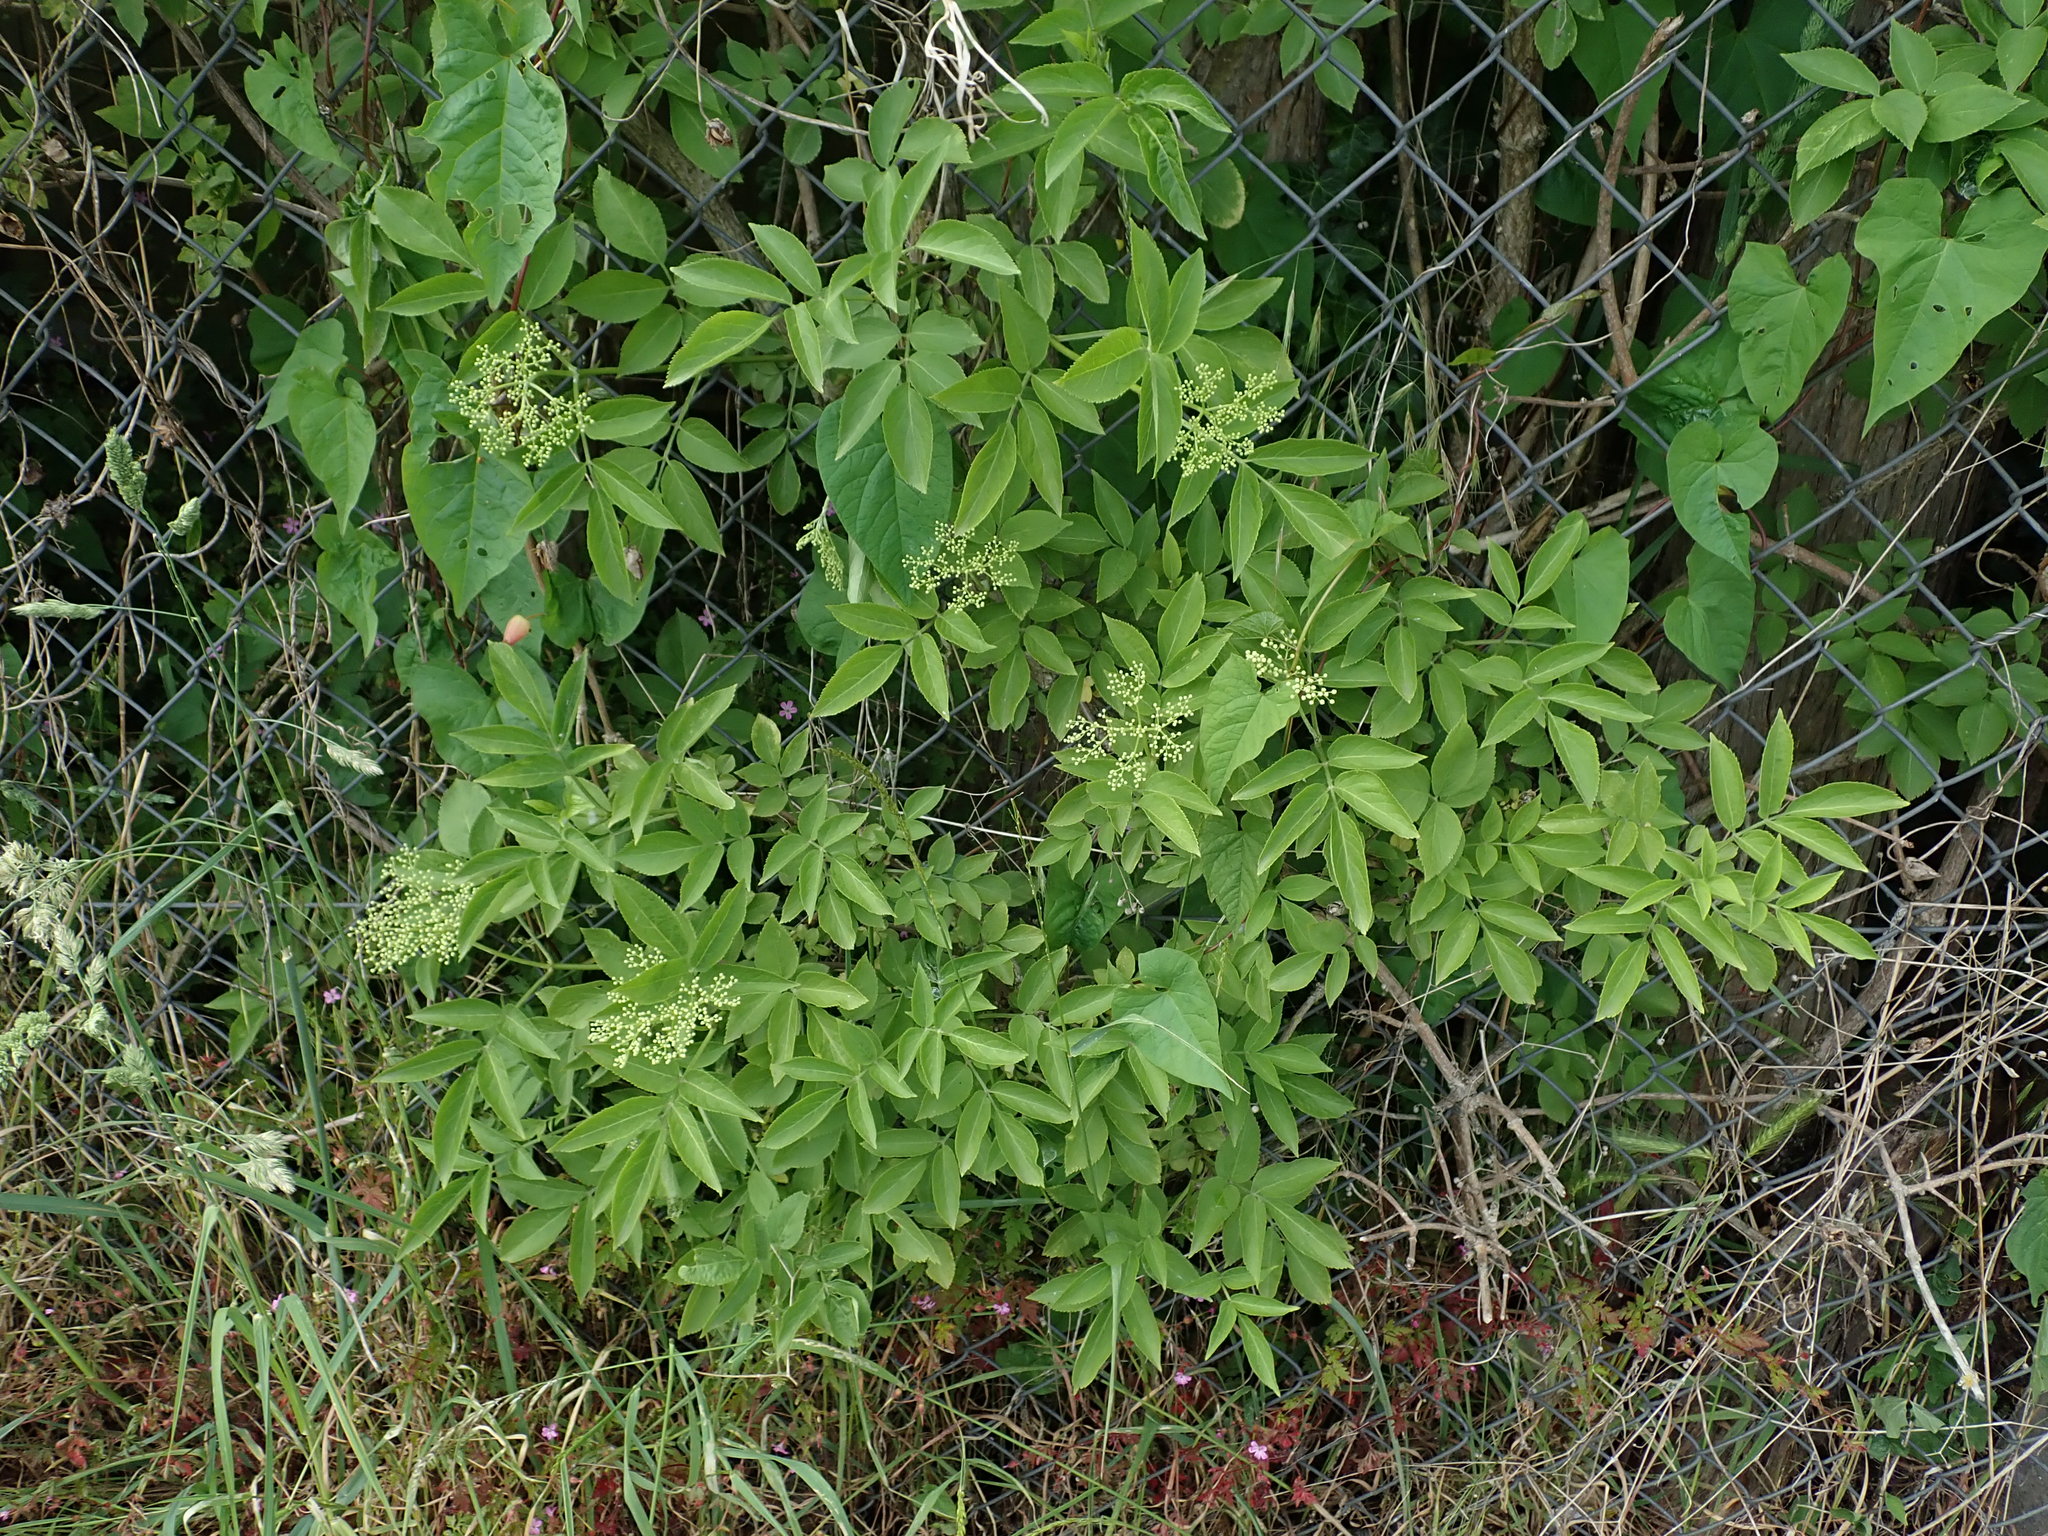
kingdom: Plantae
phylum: Tracheophyta
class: Magnoliopsida
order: Dipsacales
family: Viburnaceae
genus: Sambucus
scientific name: Sambucus nigra
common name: Elder
